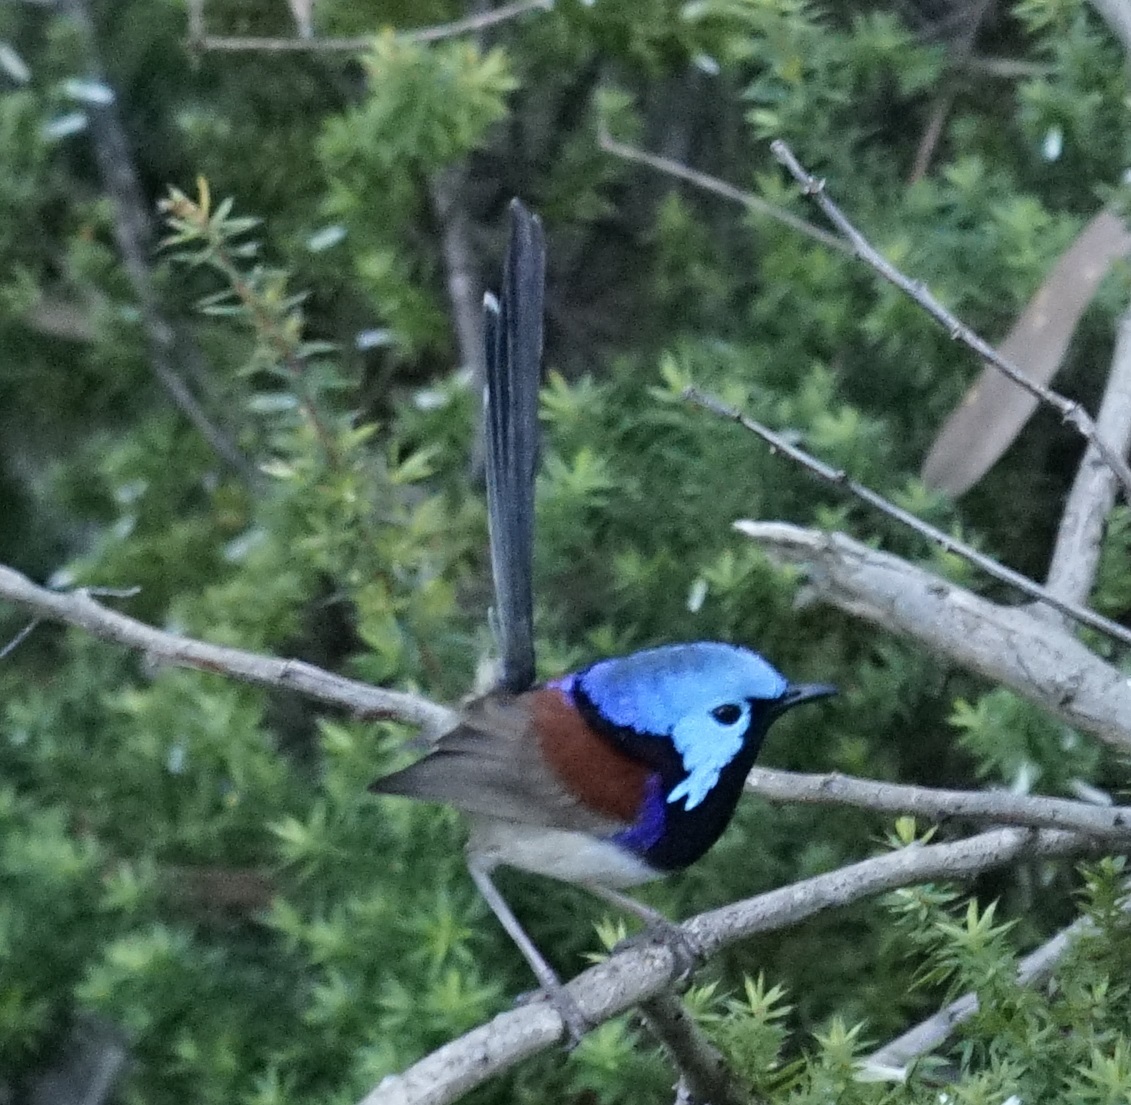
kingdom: Animalia
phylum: Chordata
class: Aves
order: Passeriformes
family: Maluridae
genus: Malurus
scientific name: Malurus lamberti
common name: Variegated fairywren
